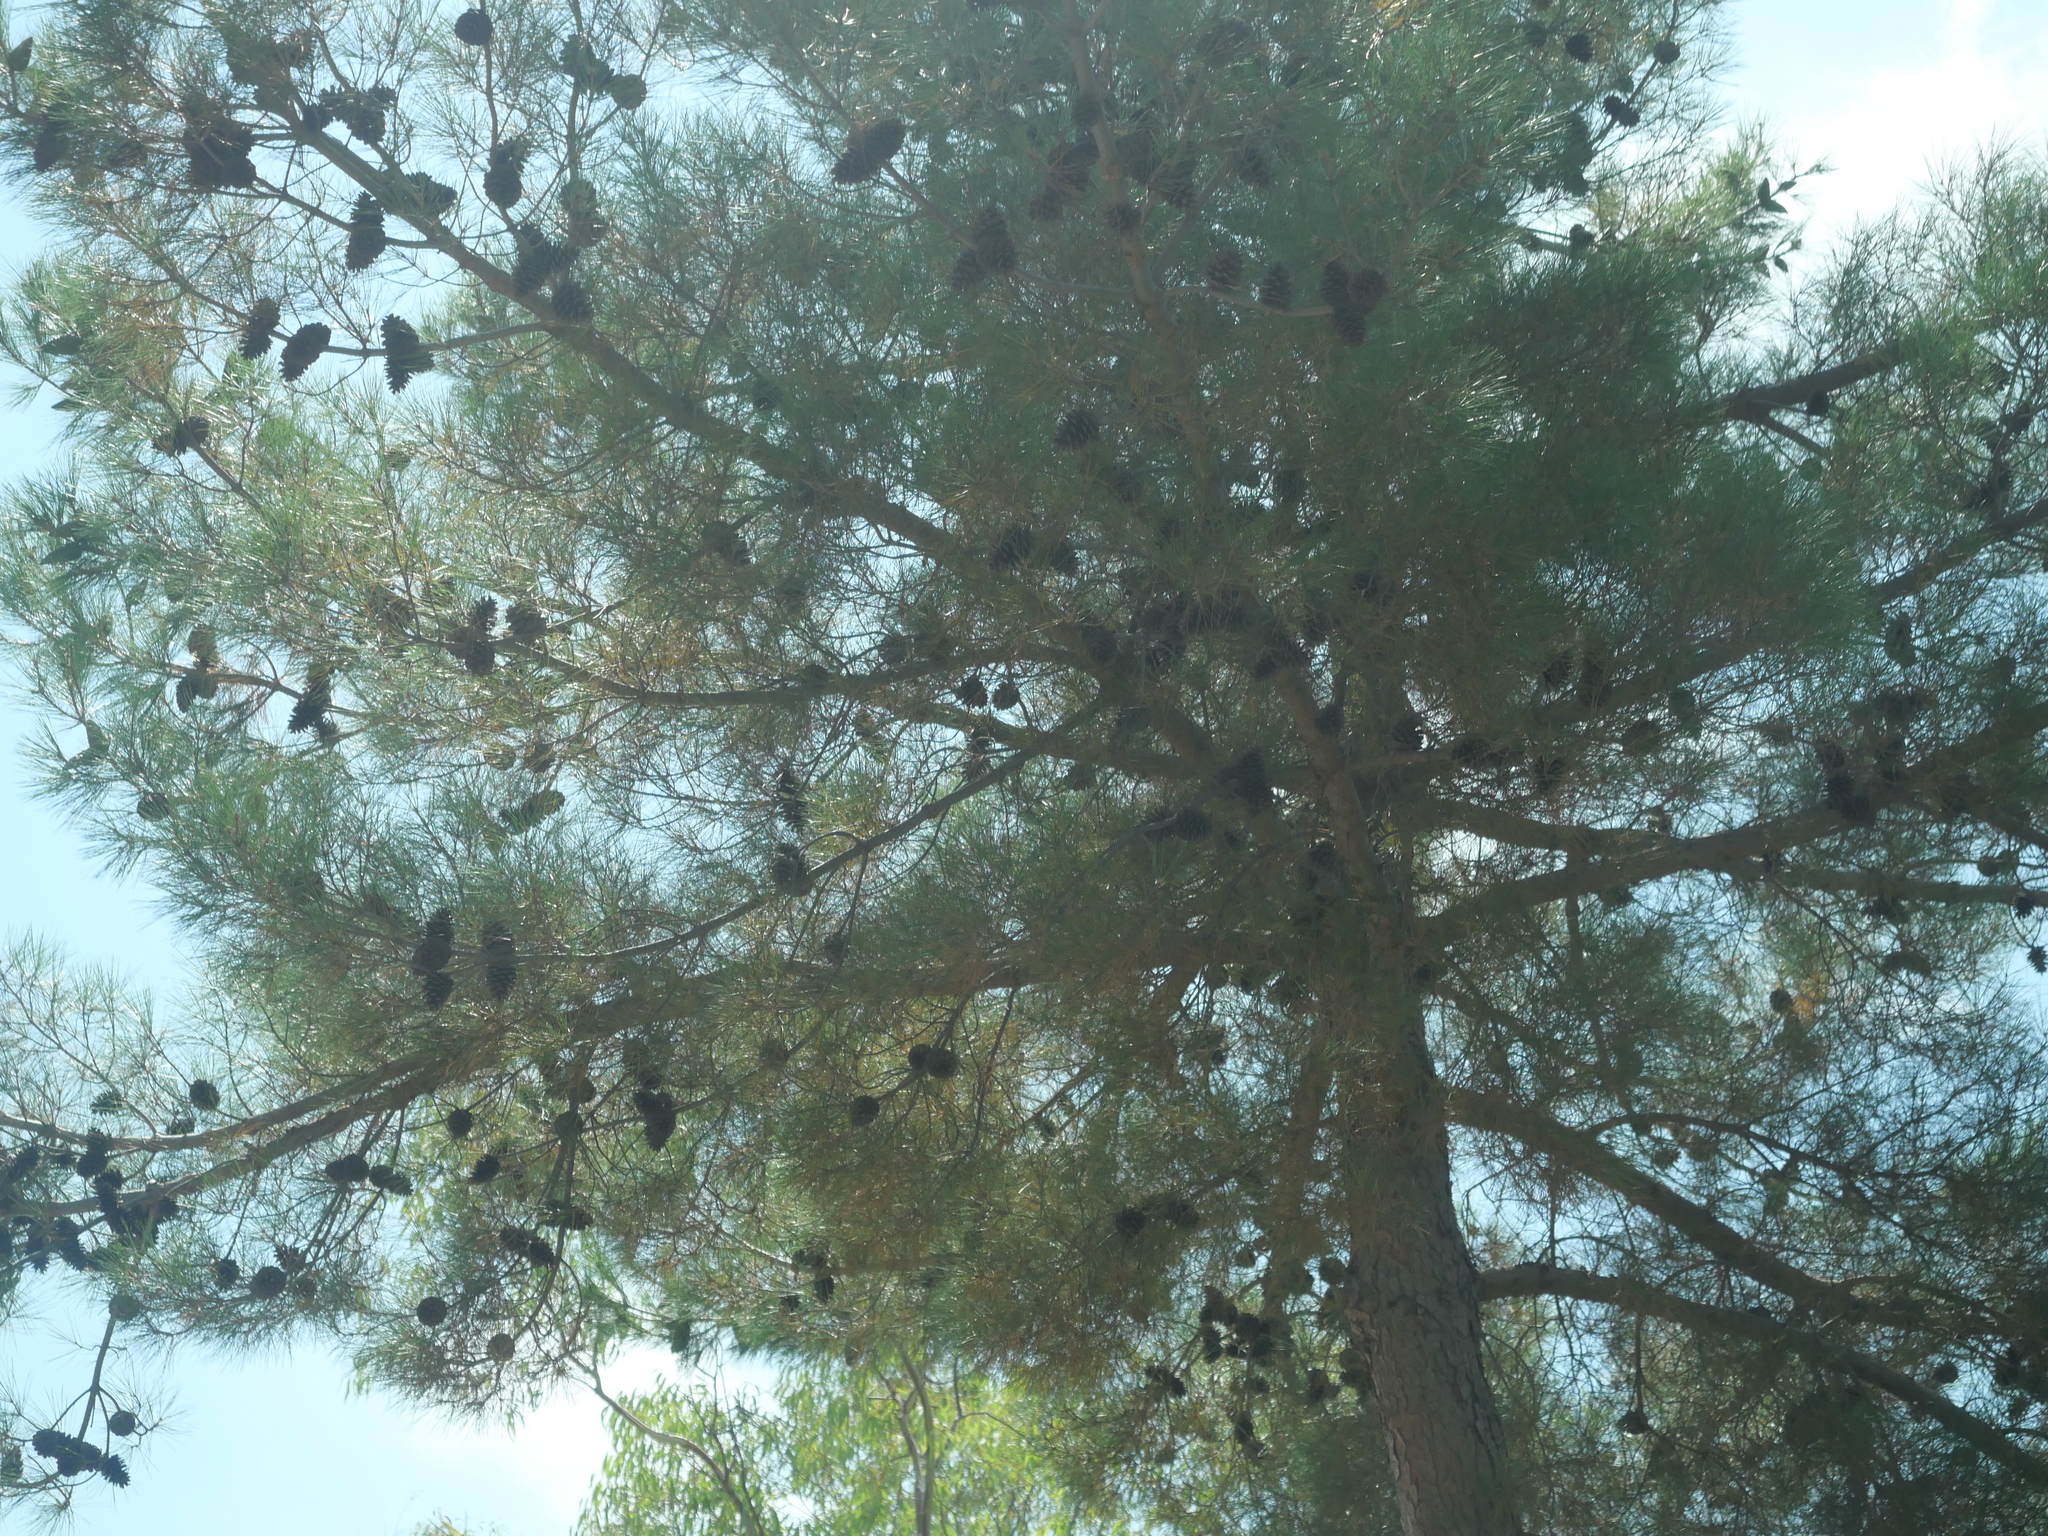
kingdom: Plantae
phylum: Tracheophyta
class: Pinopsida
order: Pinales
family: Pinaceae
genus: Pinus
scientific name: Pinus halepensis
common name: Aleppo pine
